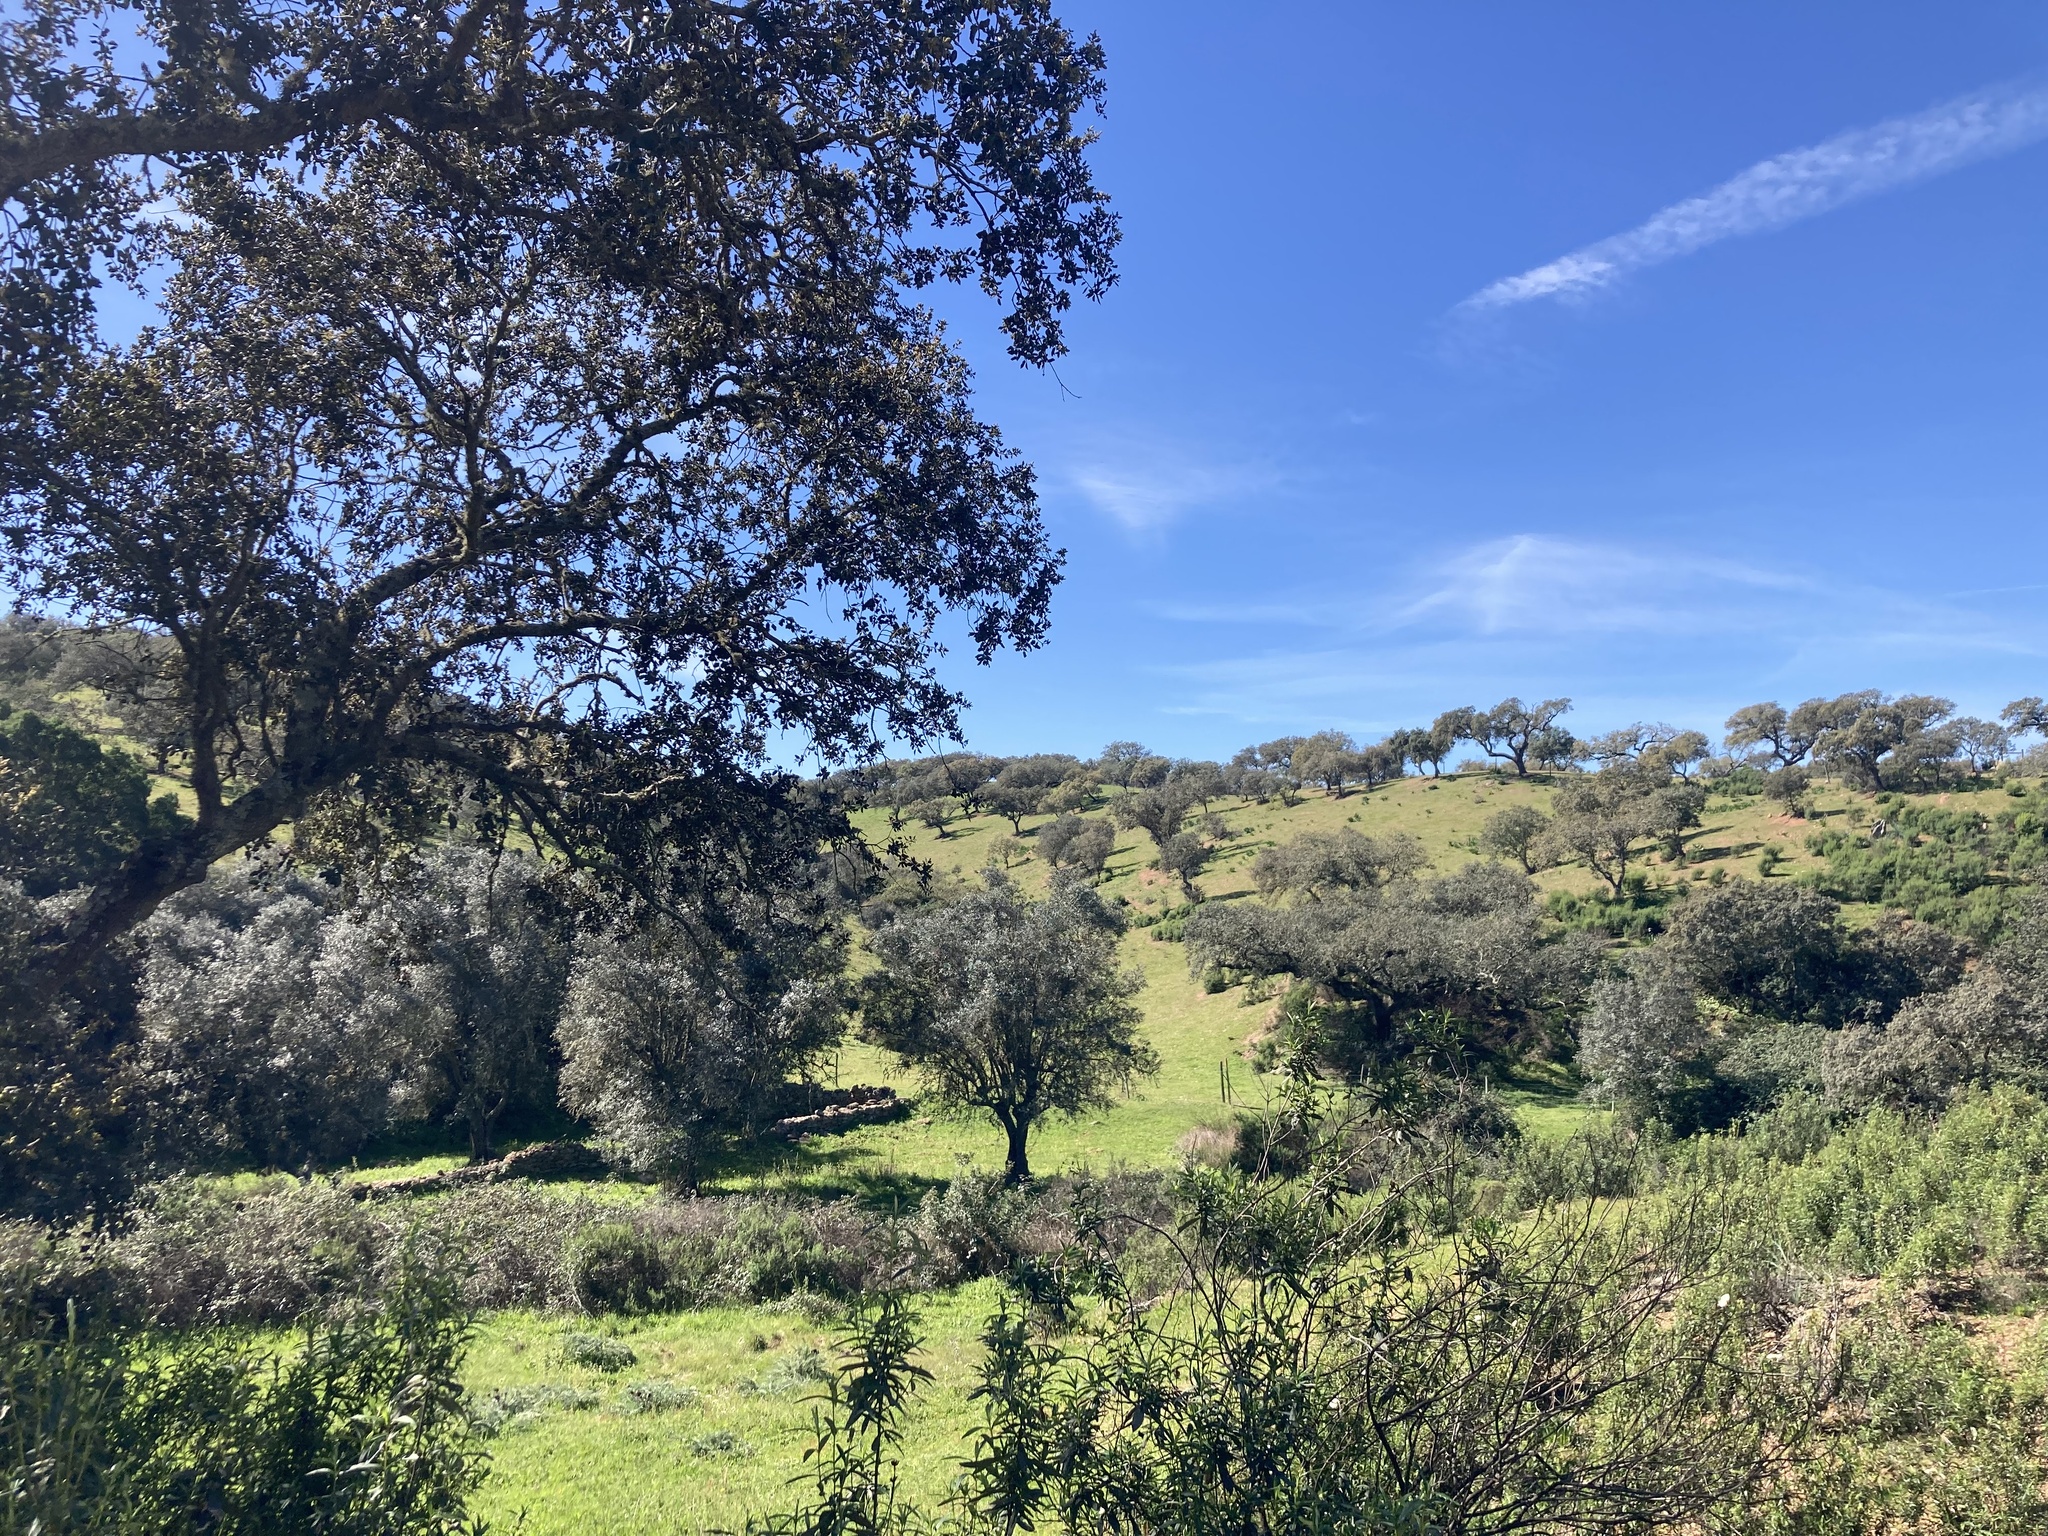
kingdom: Plantae
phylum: Tracheophyta
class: Magnoliopsida
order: Fagales
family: Fagaceae
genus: Quercus
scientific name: Quercus suber
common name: Cork oak
